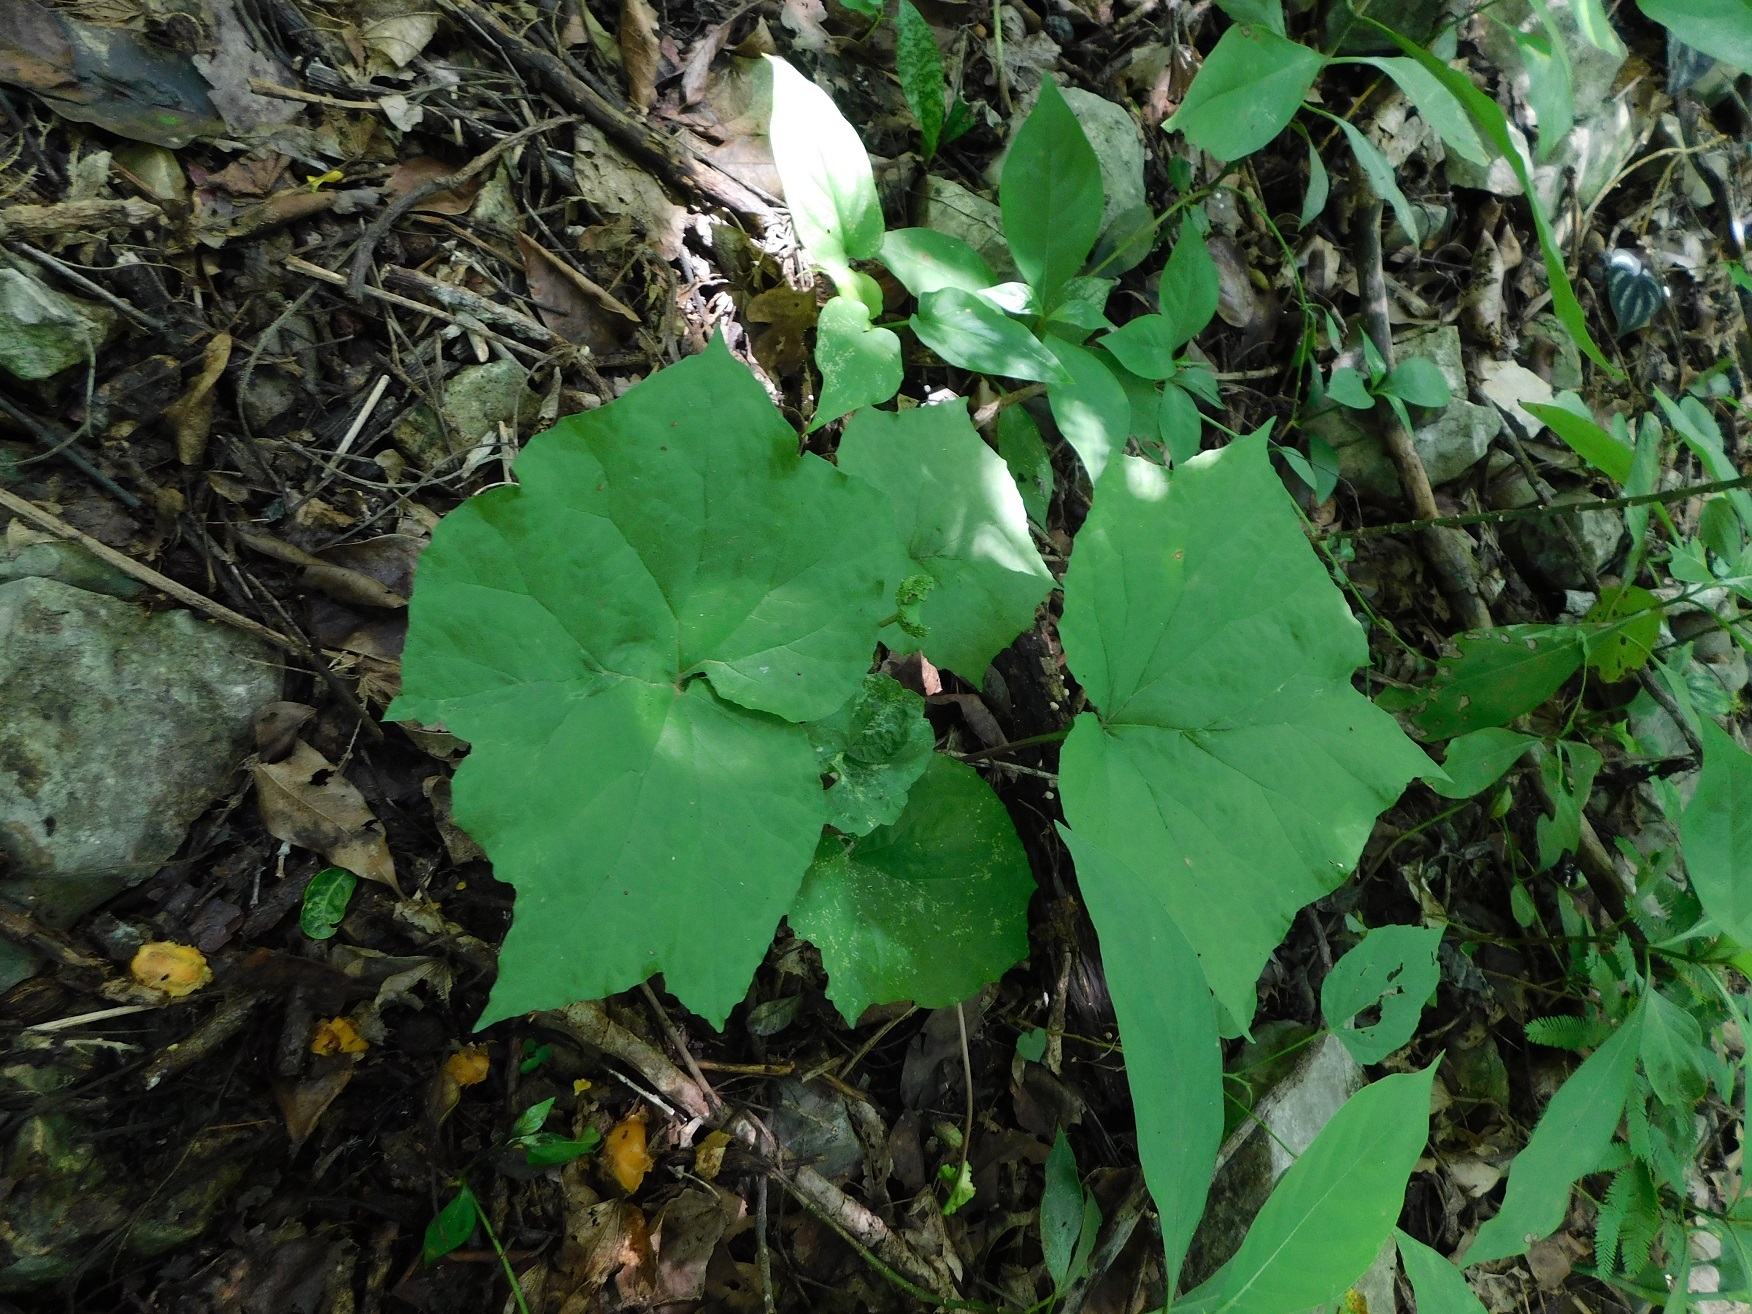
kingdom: Plantae
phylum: Tracheophyta
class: Magnoliopsida
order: Rosales
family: Moraceae
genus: Dorstenia
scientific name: Dorstenia contrajerva
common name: Tusilla
